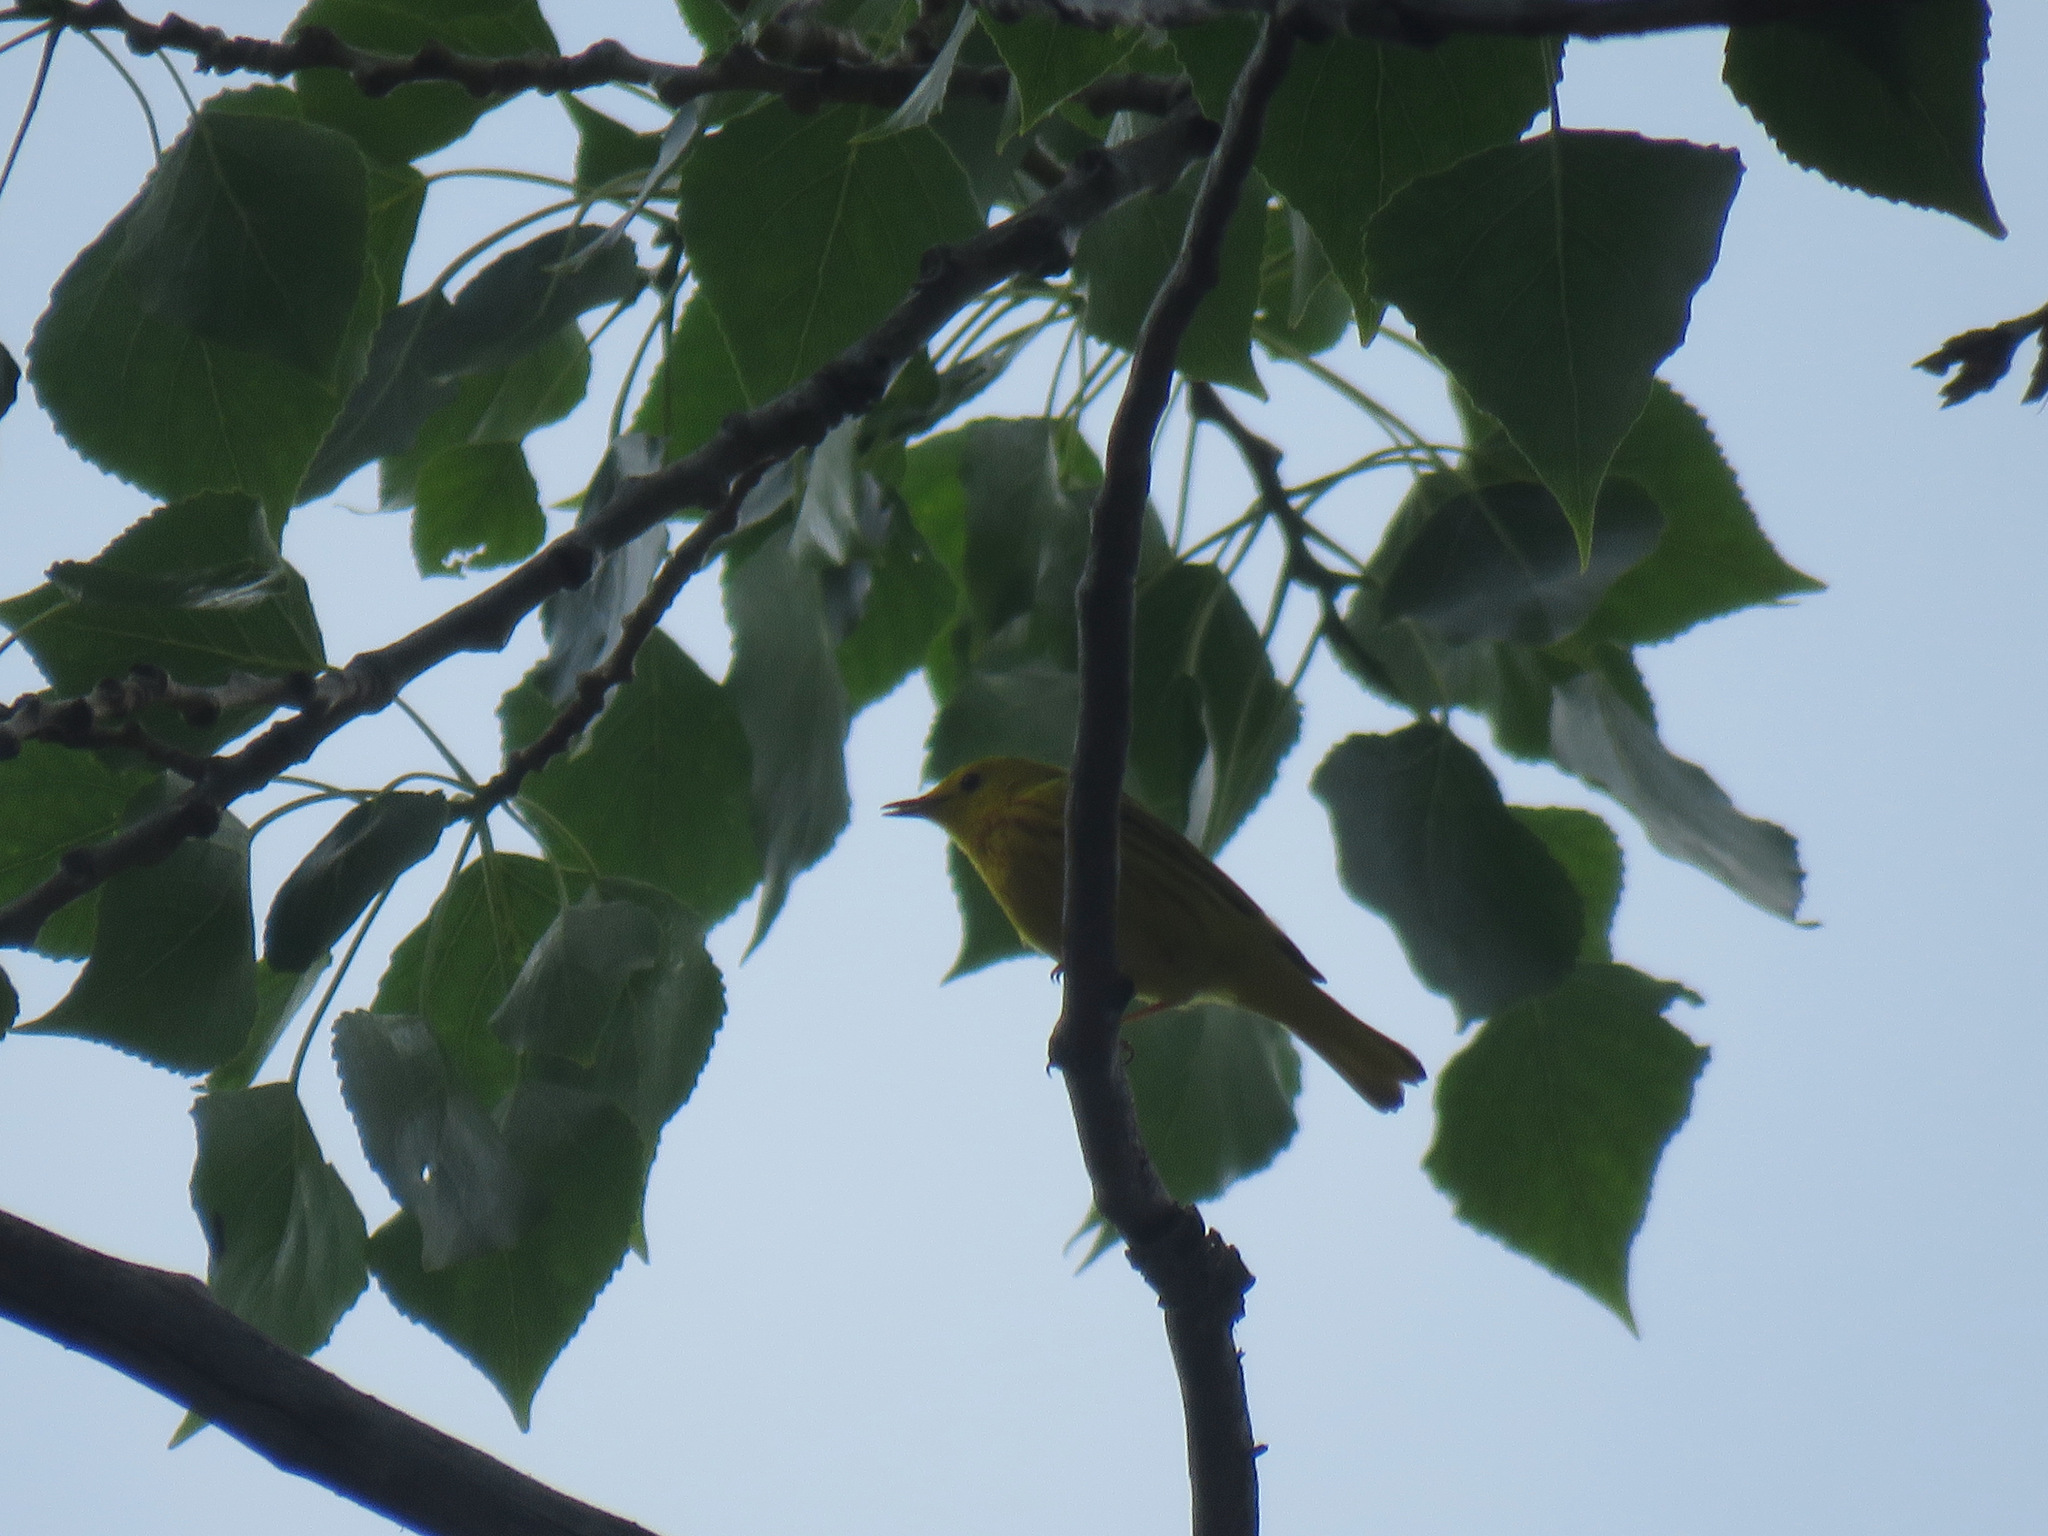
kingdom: Animalia
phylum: Chordata
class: Aves
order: Passeriformes
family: Parulidae
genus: Setophaga
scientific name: Setophaga petechia
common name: Yellow warbler
